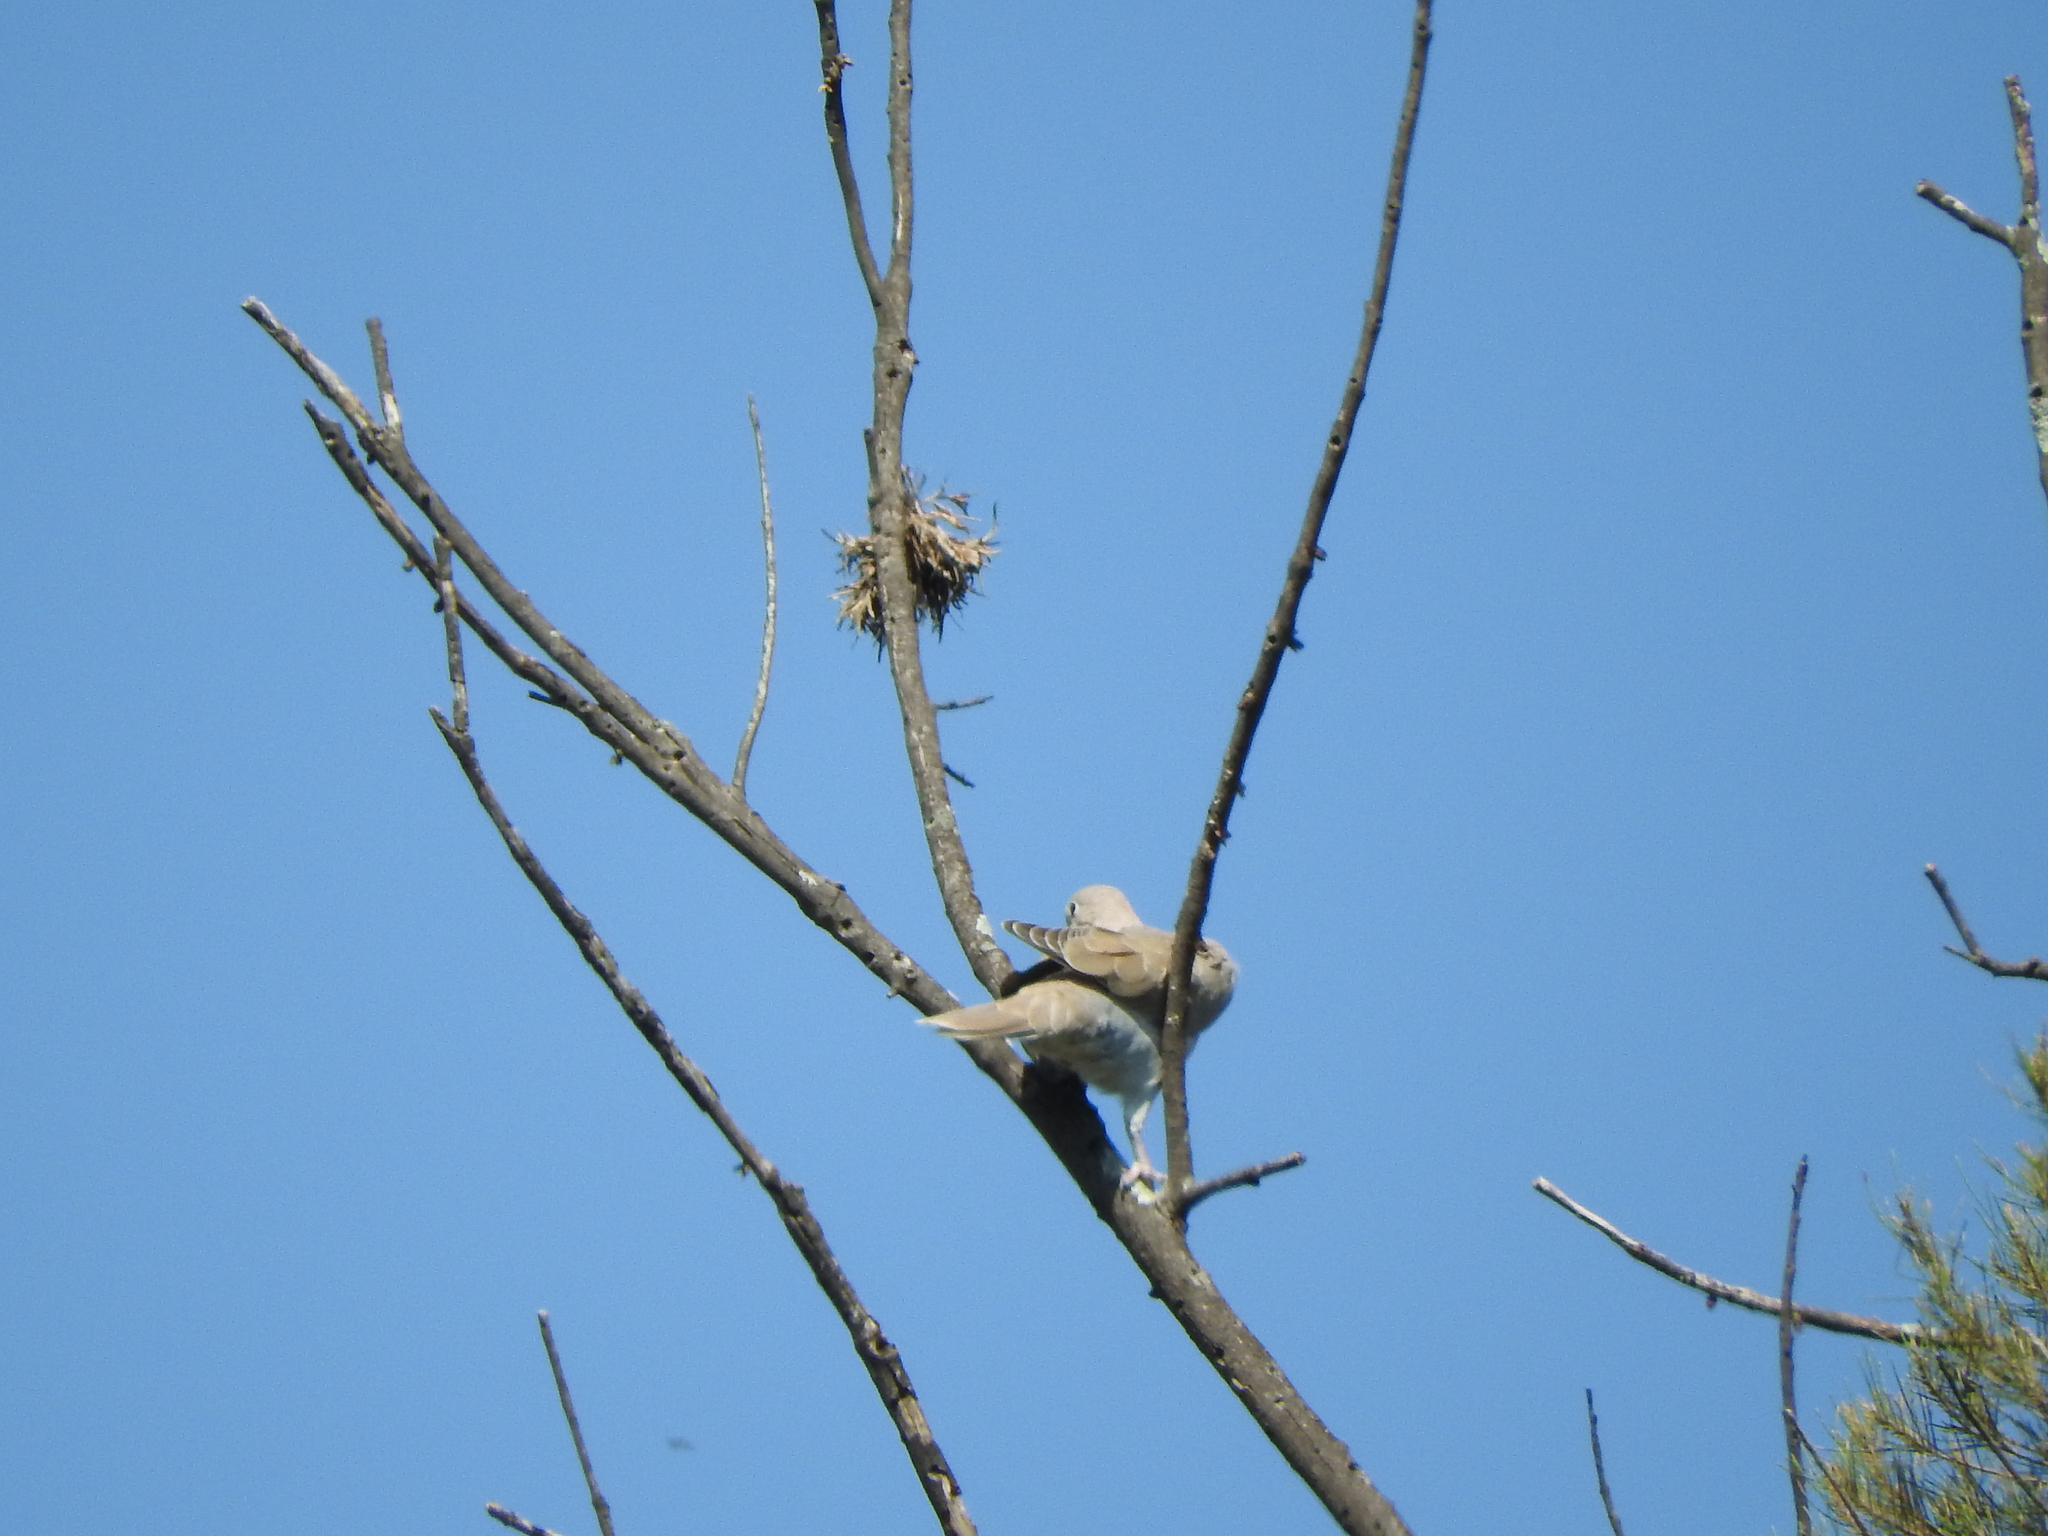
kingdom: Animalia
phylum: Chordata
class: Aves
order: Columbiformes
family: Columbidae
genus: Streptopelia
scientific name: Streptopelia decaocto
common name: Eurasian collared dove
